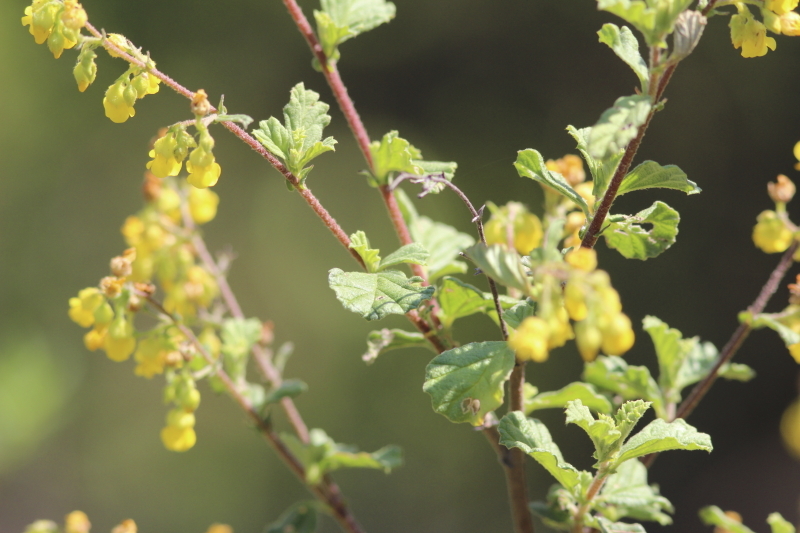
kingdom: Plantae
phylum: Tracheophyta
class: Magnoliopsida
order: Malvales
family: Malvaceae
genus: Hermannia
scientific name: Hermannia alnifolia
